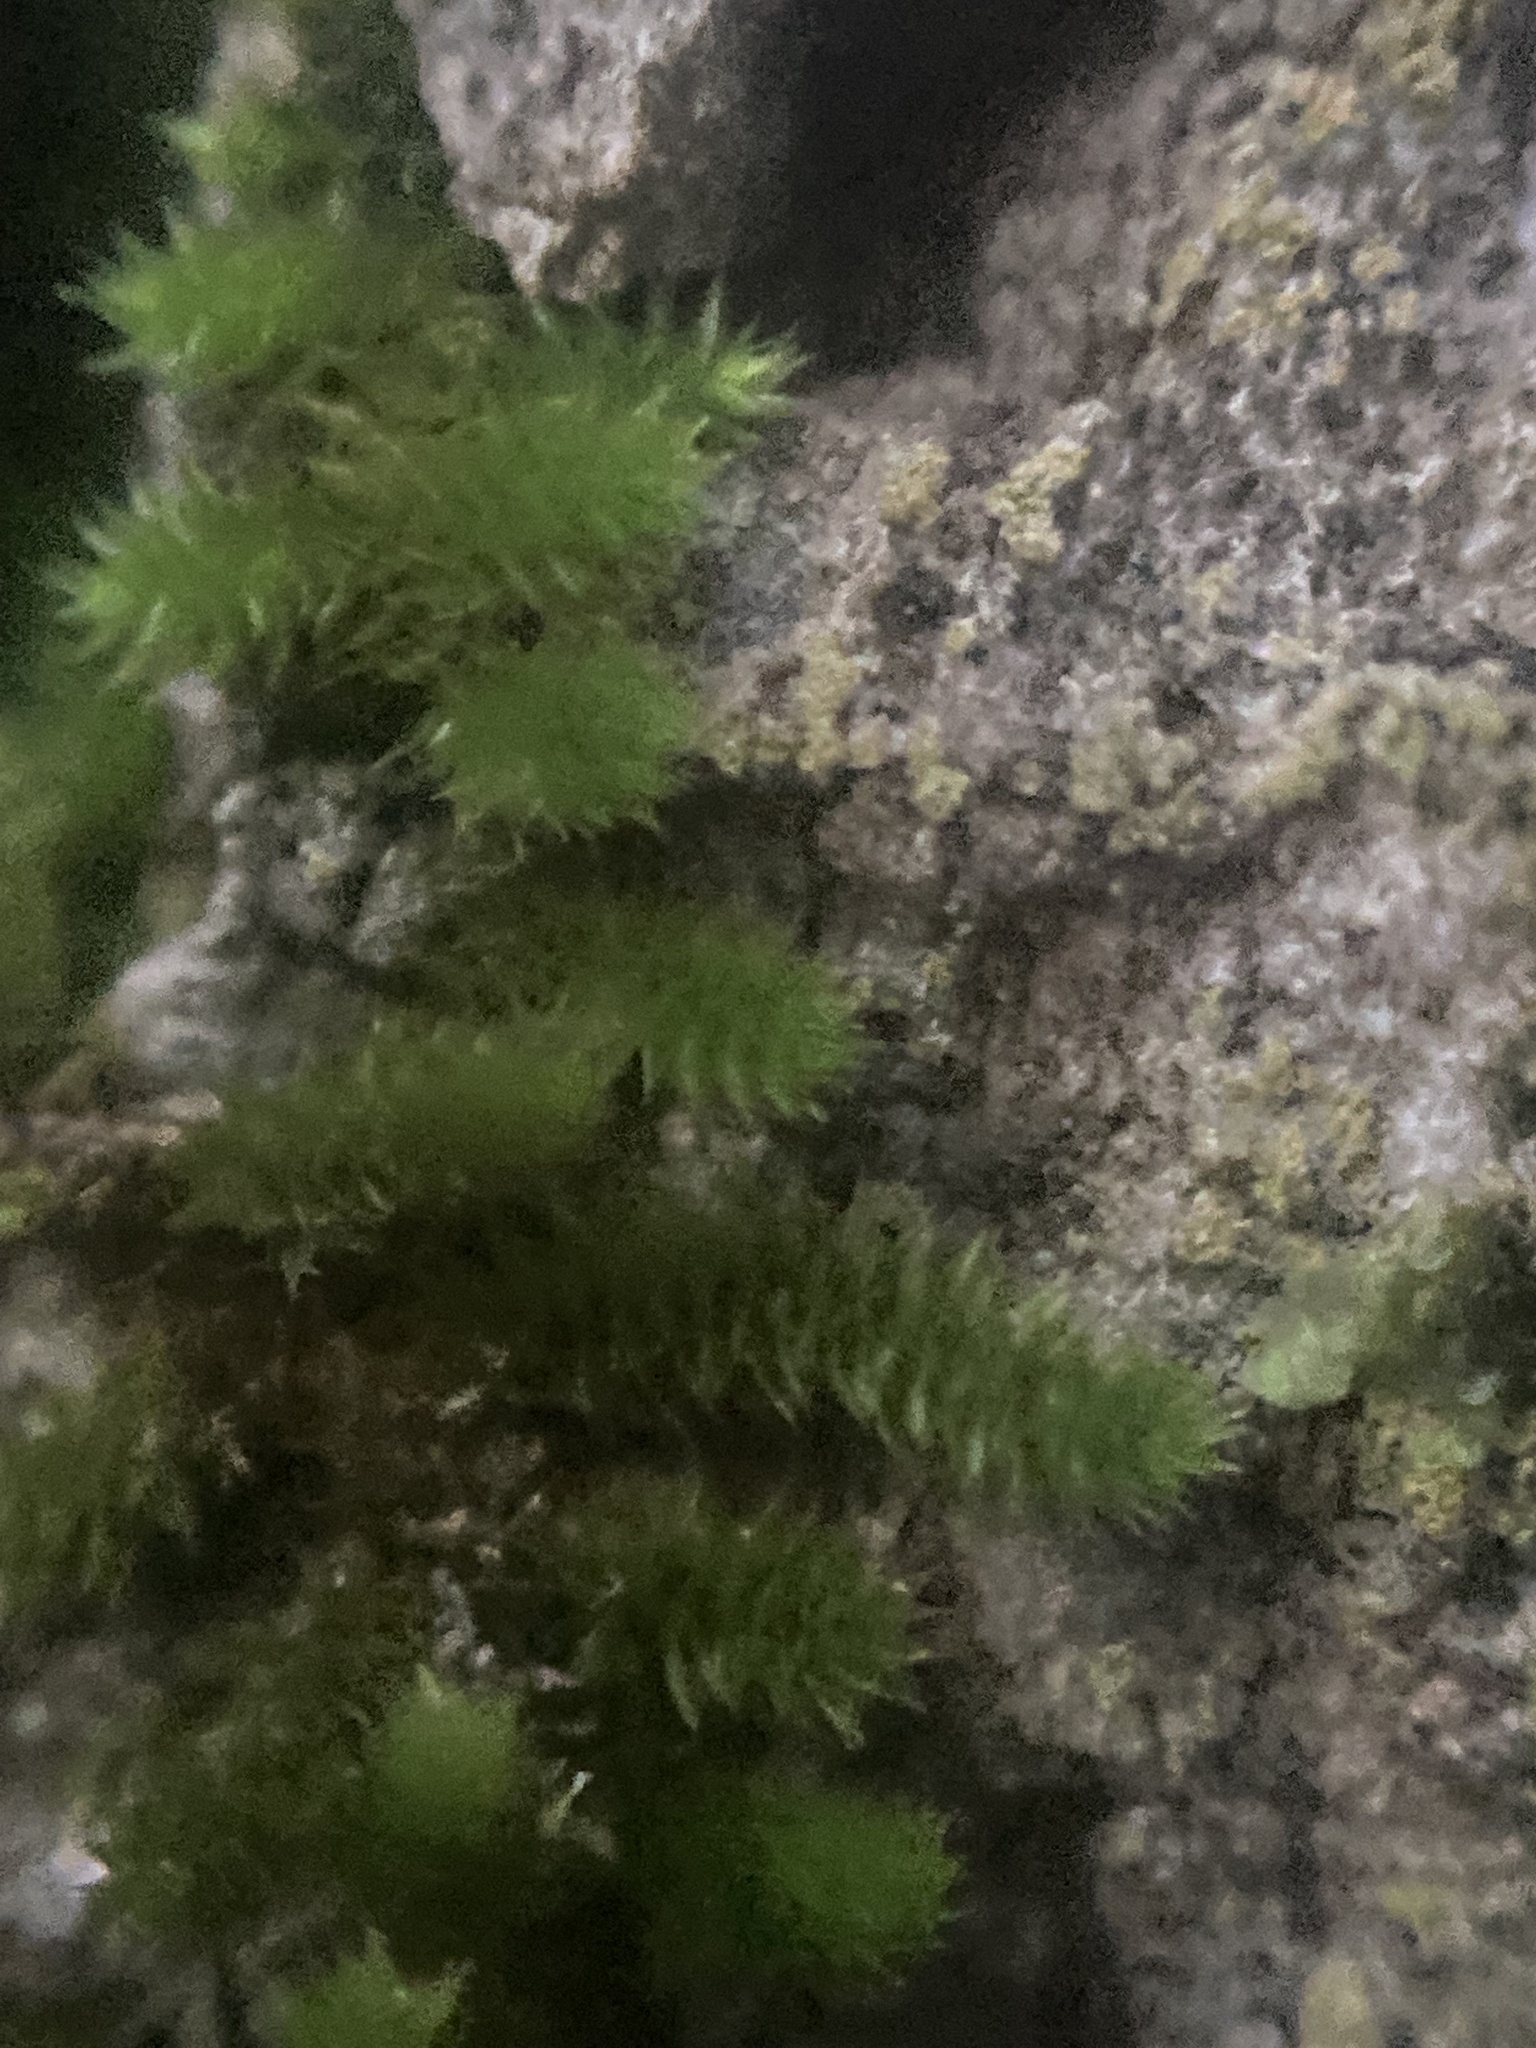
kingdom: Plantae
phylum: Bryophyta
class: Bryopsida
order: Hypnales
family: Leucodontaceae
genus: Leucodon
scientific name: Leucodon julaceus
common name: Smooth hook moss
